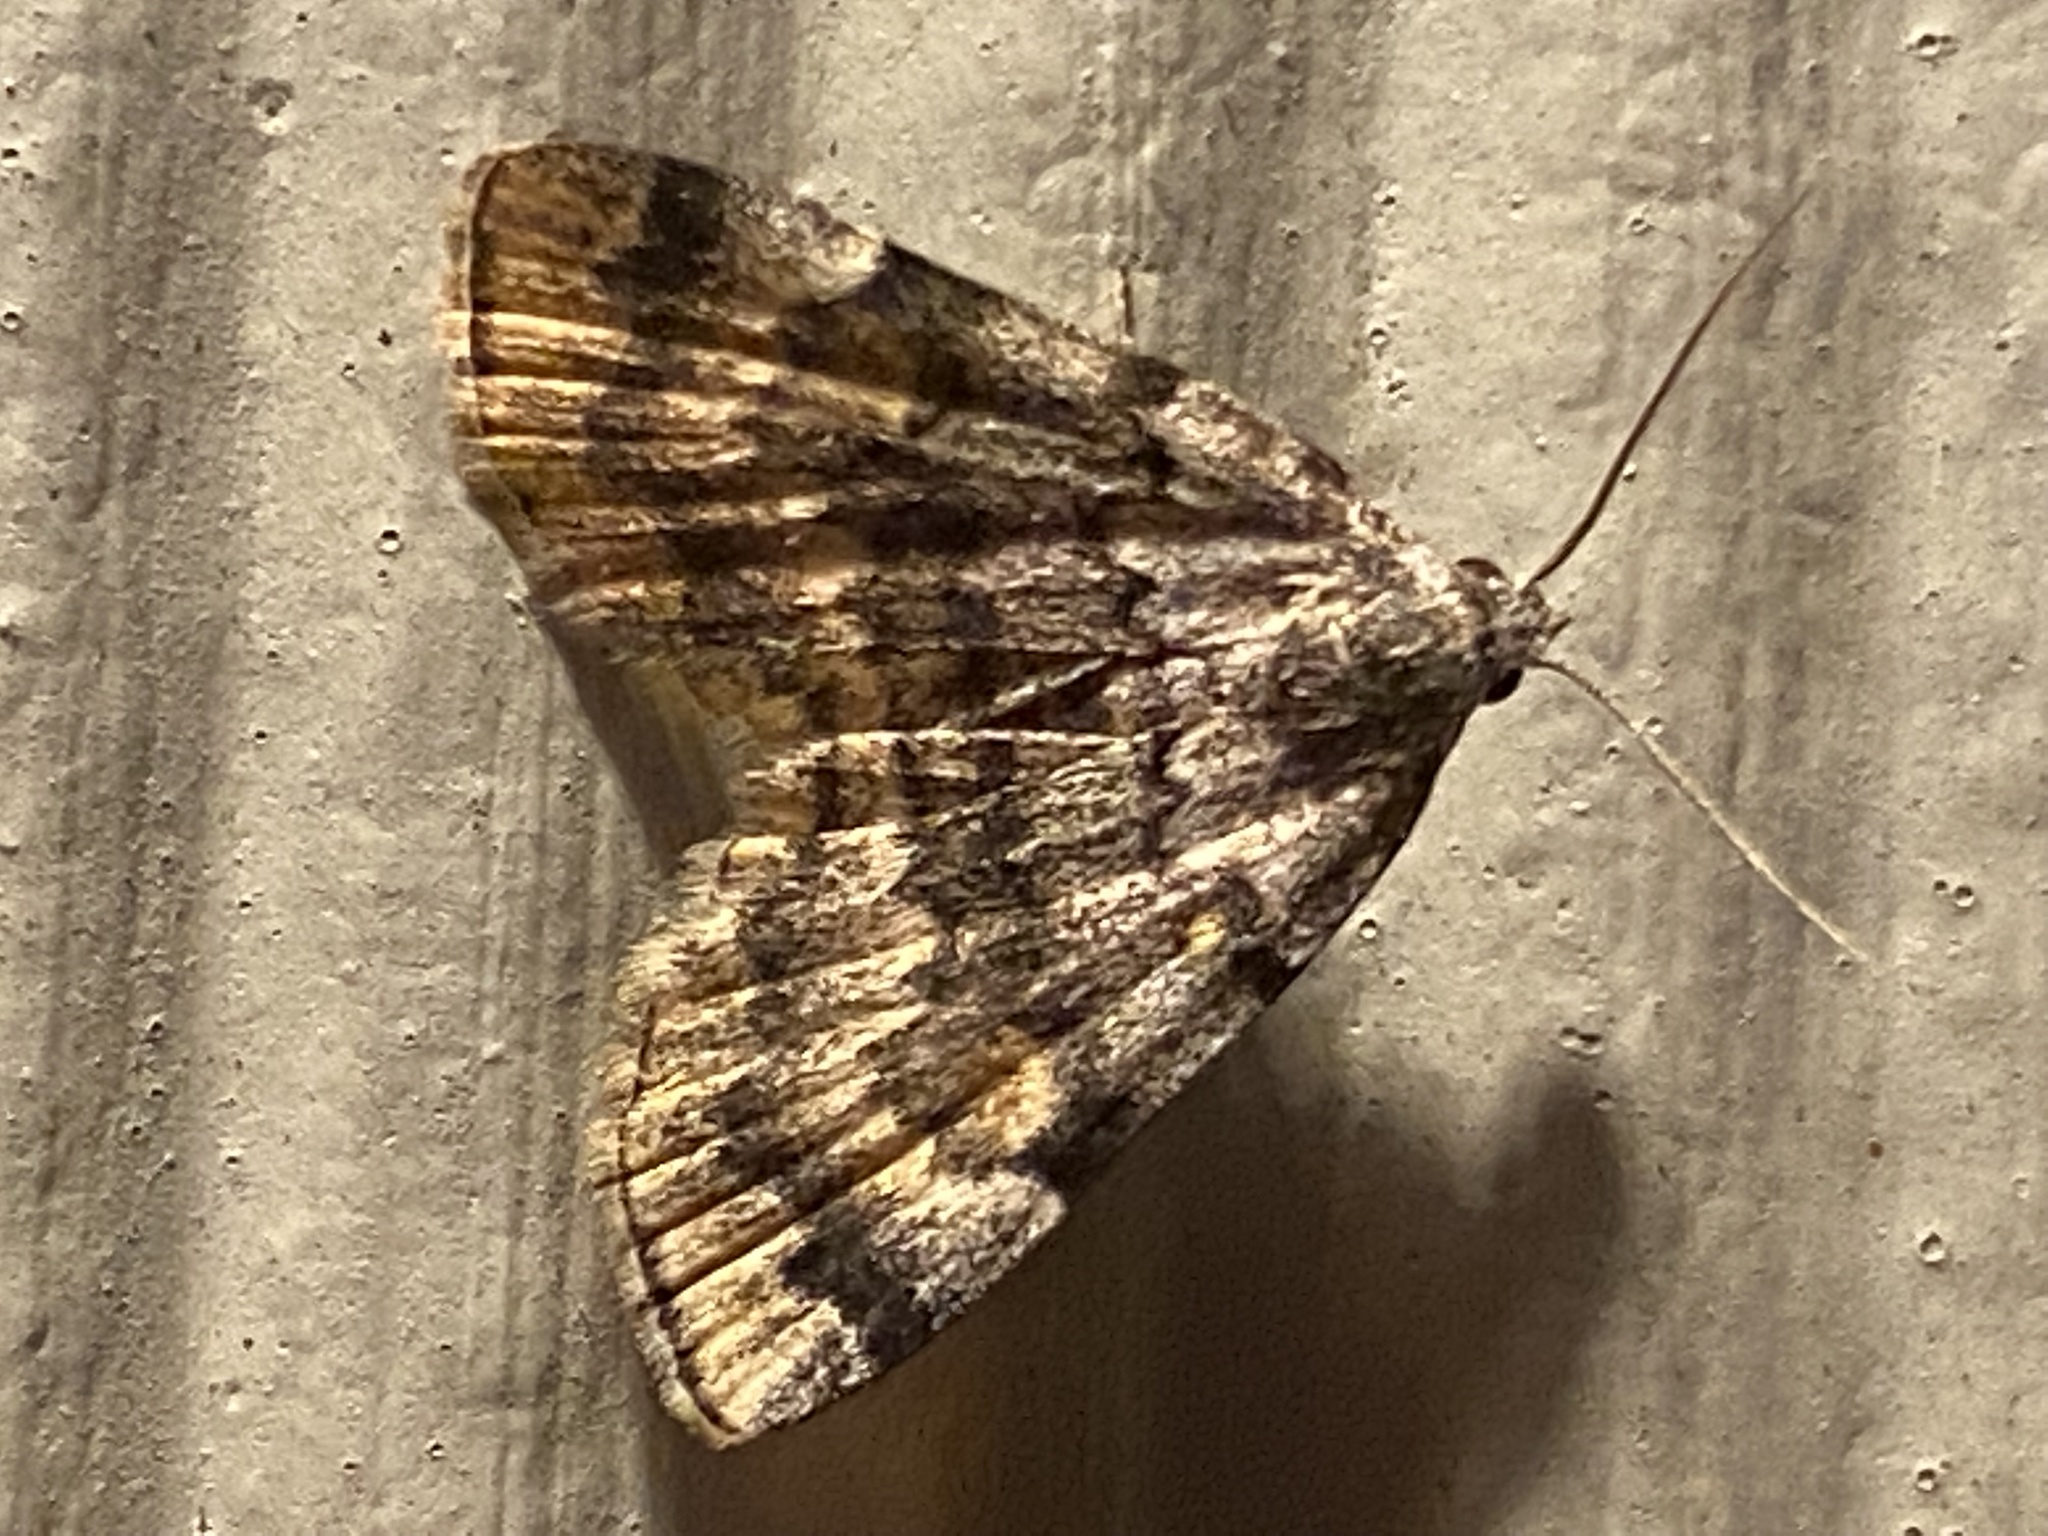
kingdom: Animalia
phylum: Arthropoda
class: Insecta
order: Lepidoptera
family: Erebidae
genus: Idia
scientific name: Idia americalis
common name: American idia moth
